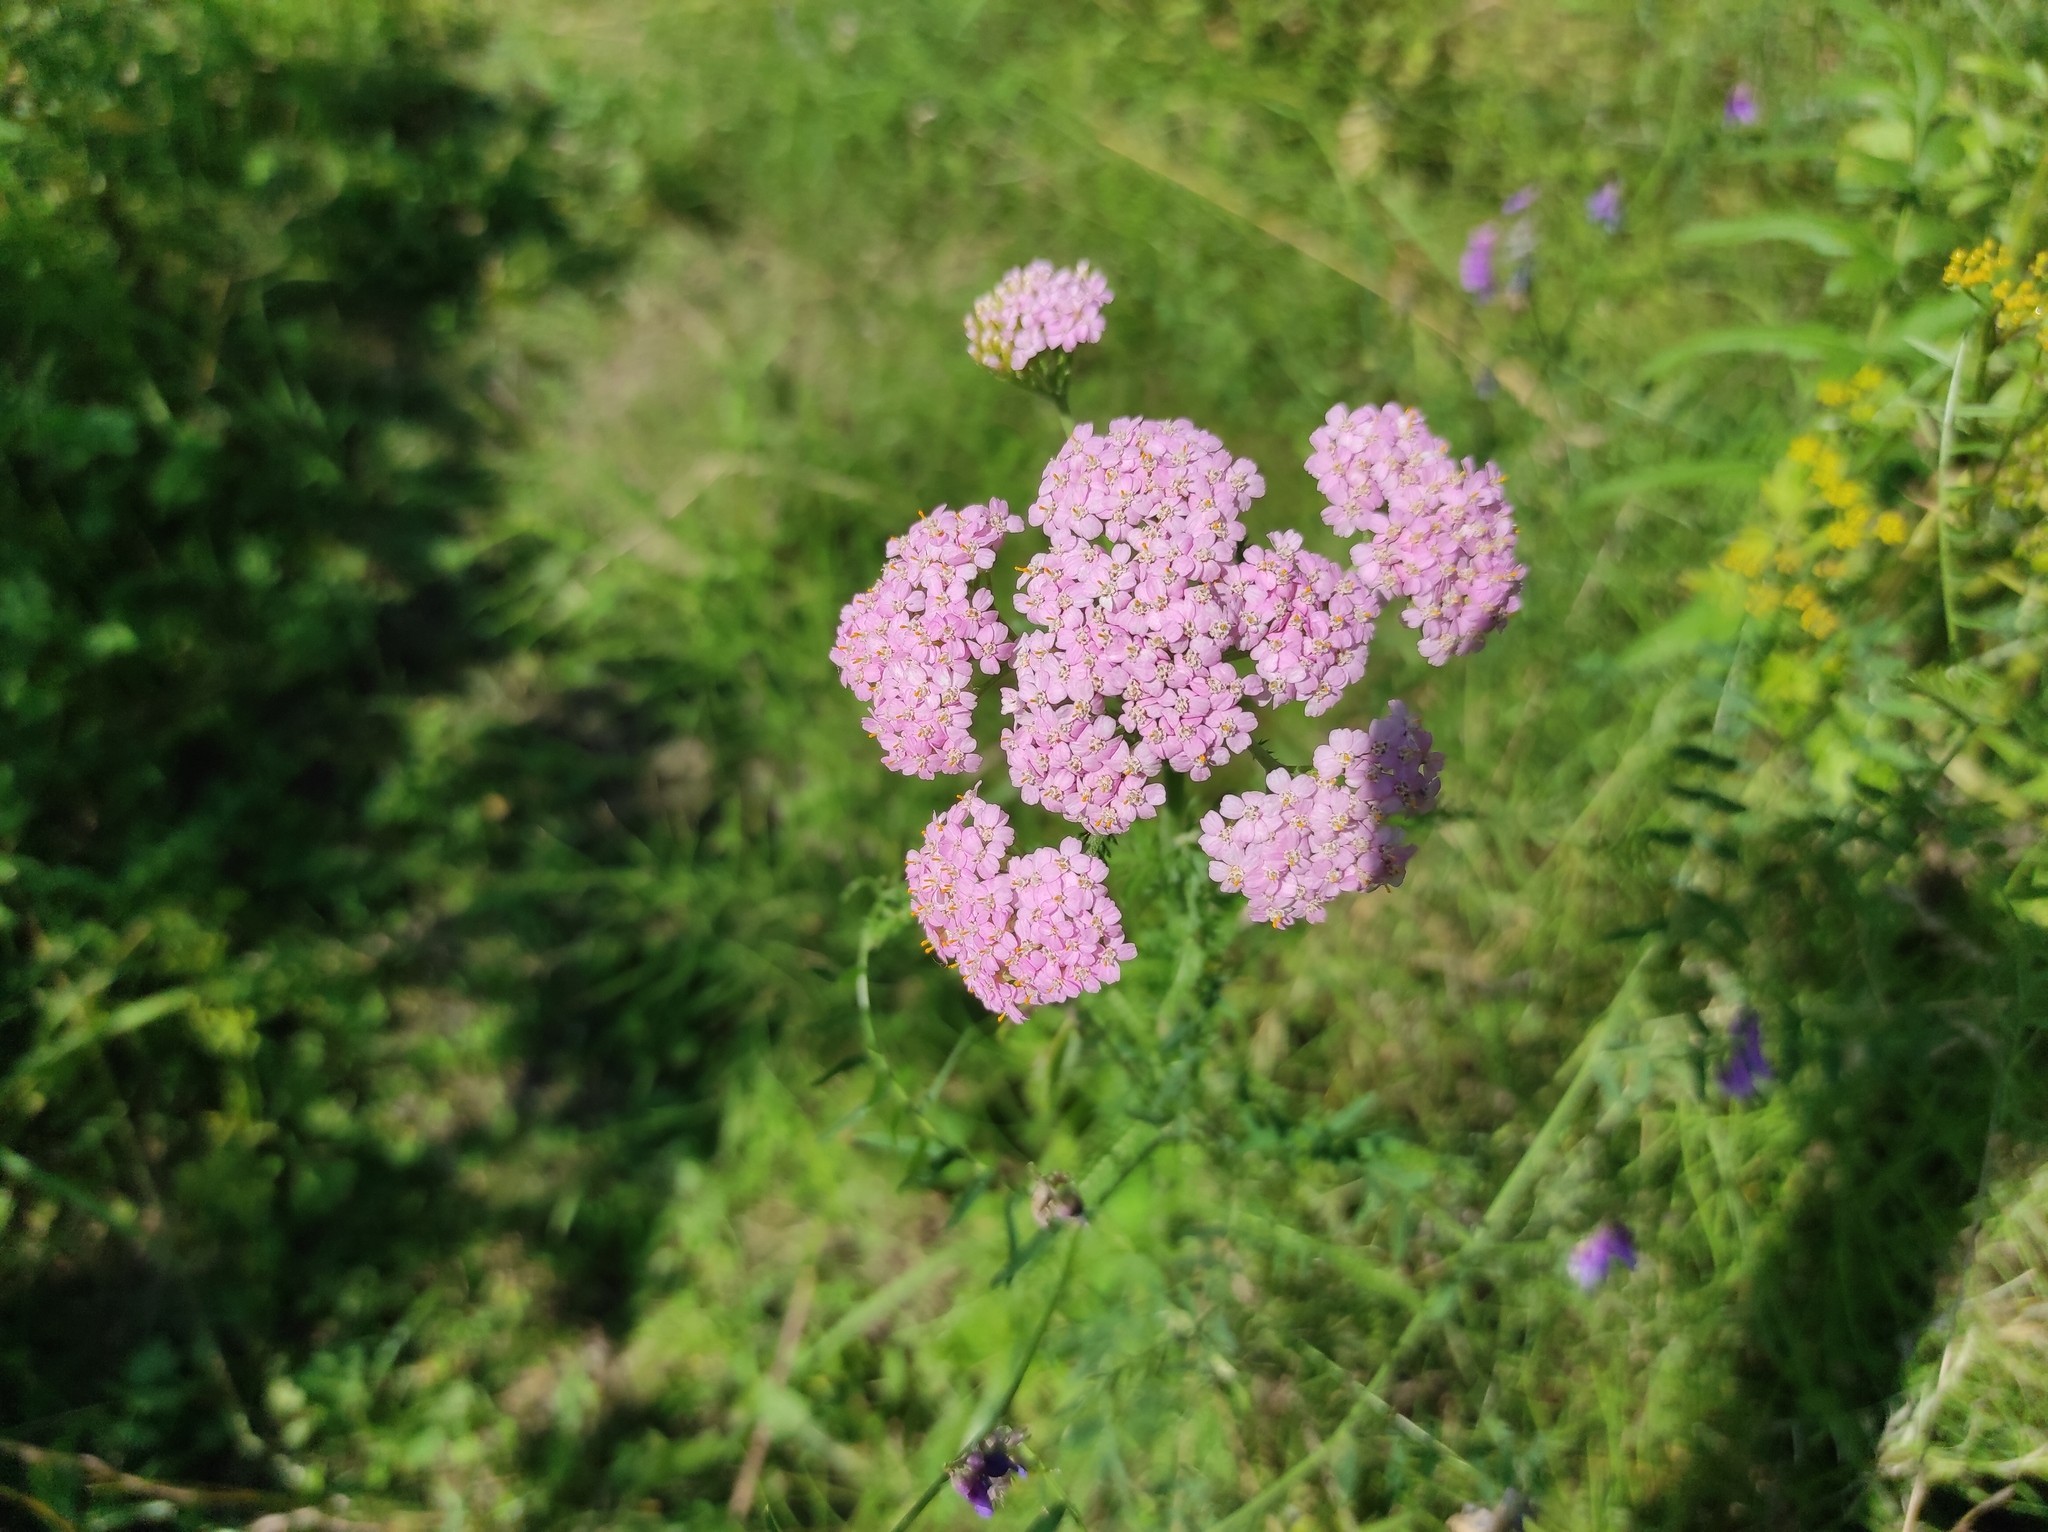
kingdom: Plantae
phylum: Tracheophyta
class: Magnoliopsida
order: Asterales
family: Asteraceae
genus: Achillea
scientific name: Achillea asiatica
